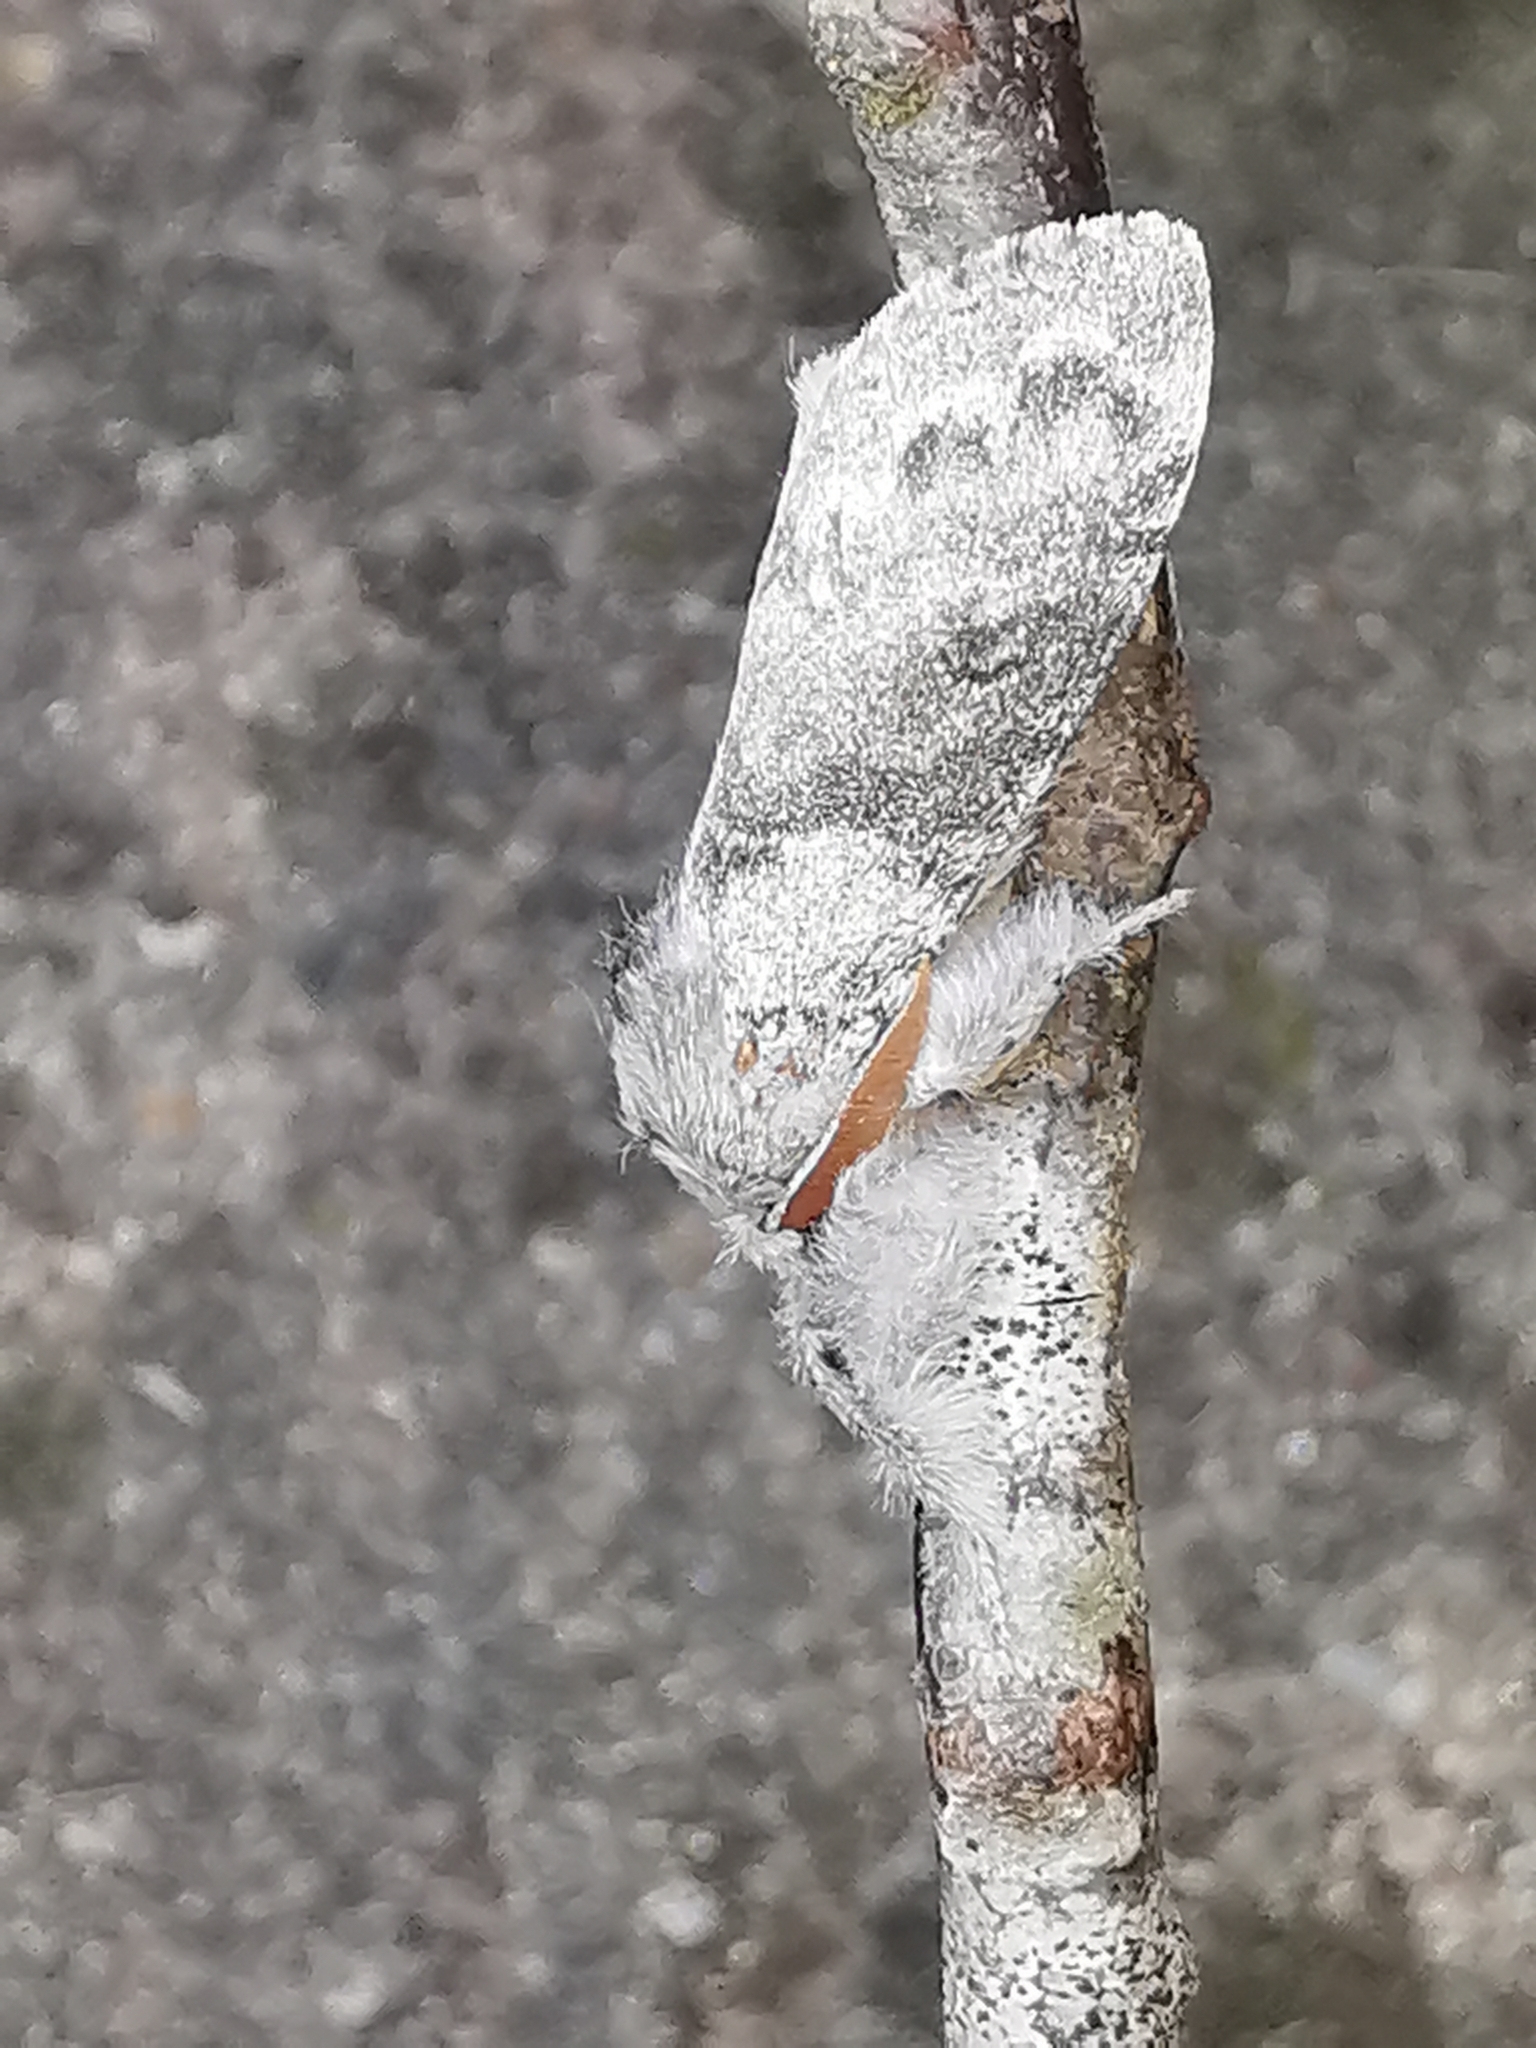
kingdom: Animalia
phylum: Arthropoda
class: Insecta
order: Lepidoptera
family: Erebidae
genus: Calliteara
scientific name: Calliteara pudibunda
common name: Pale tussock
